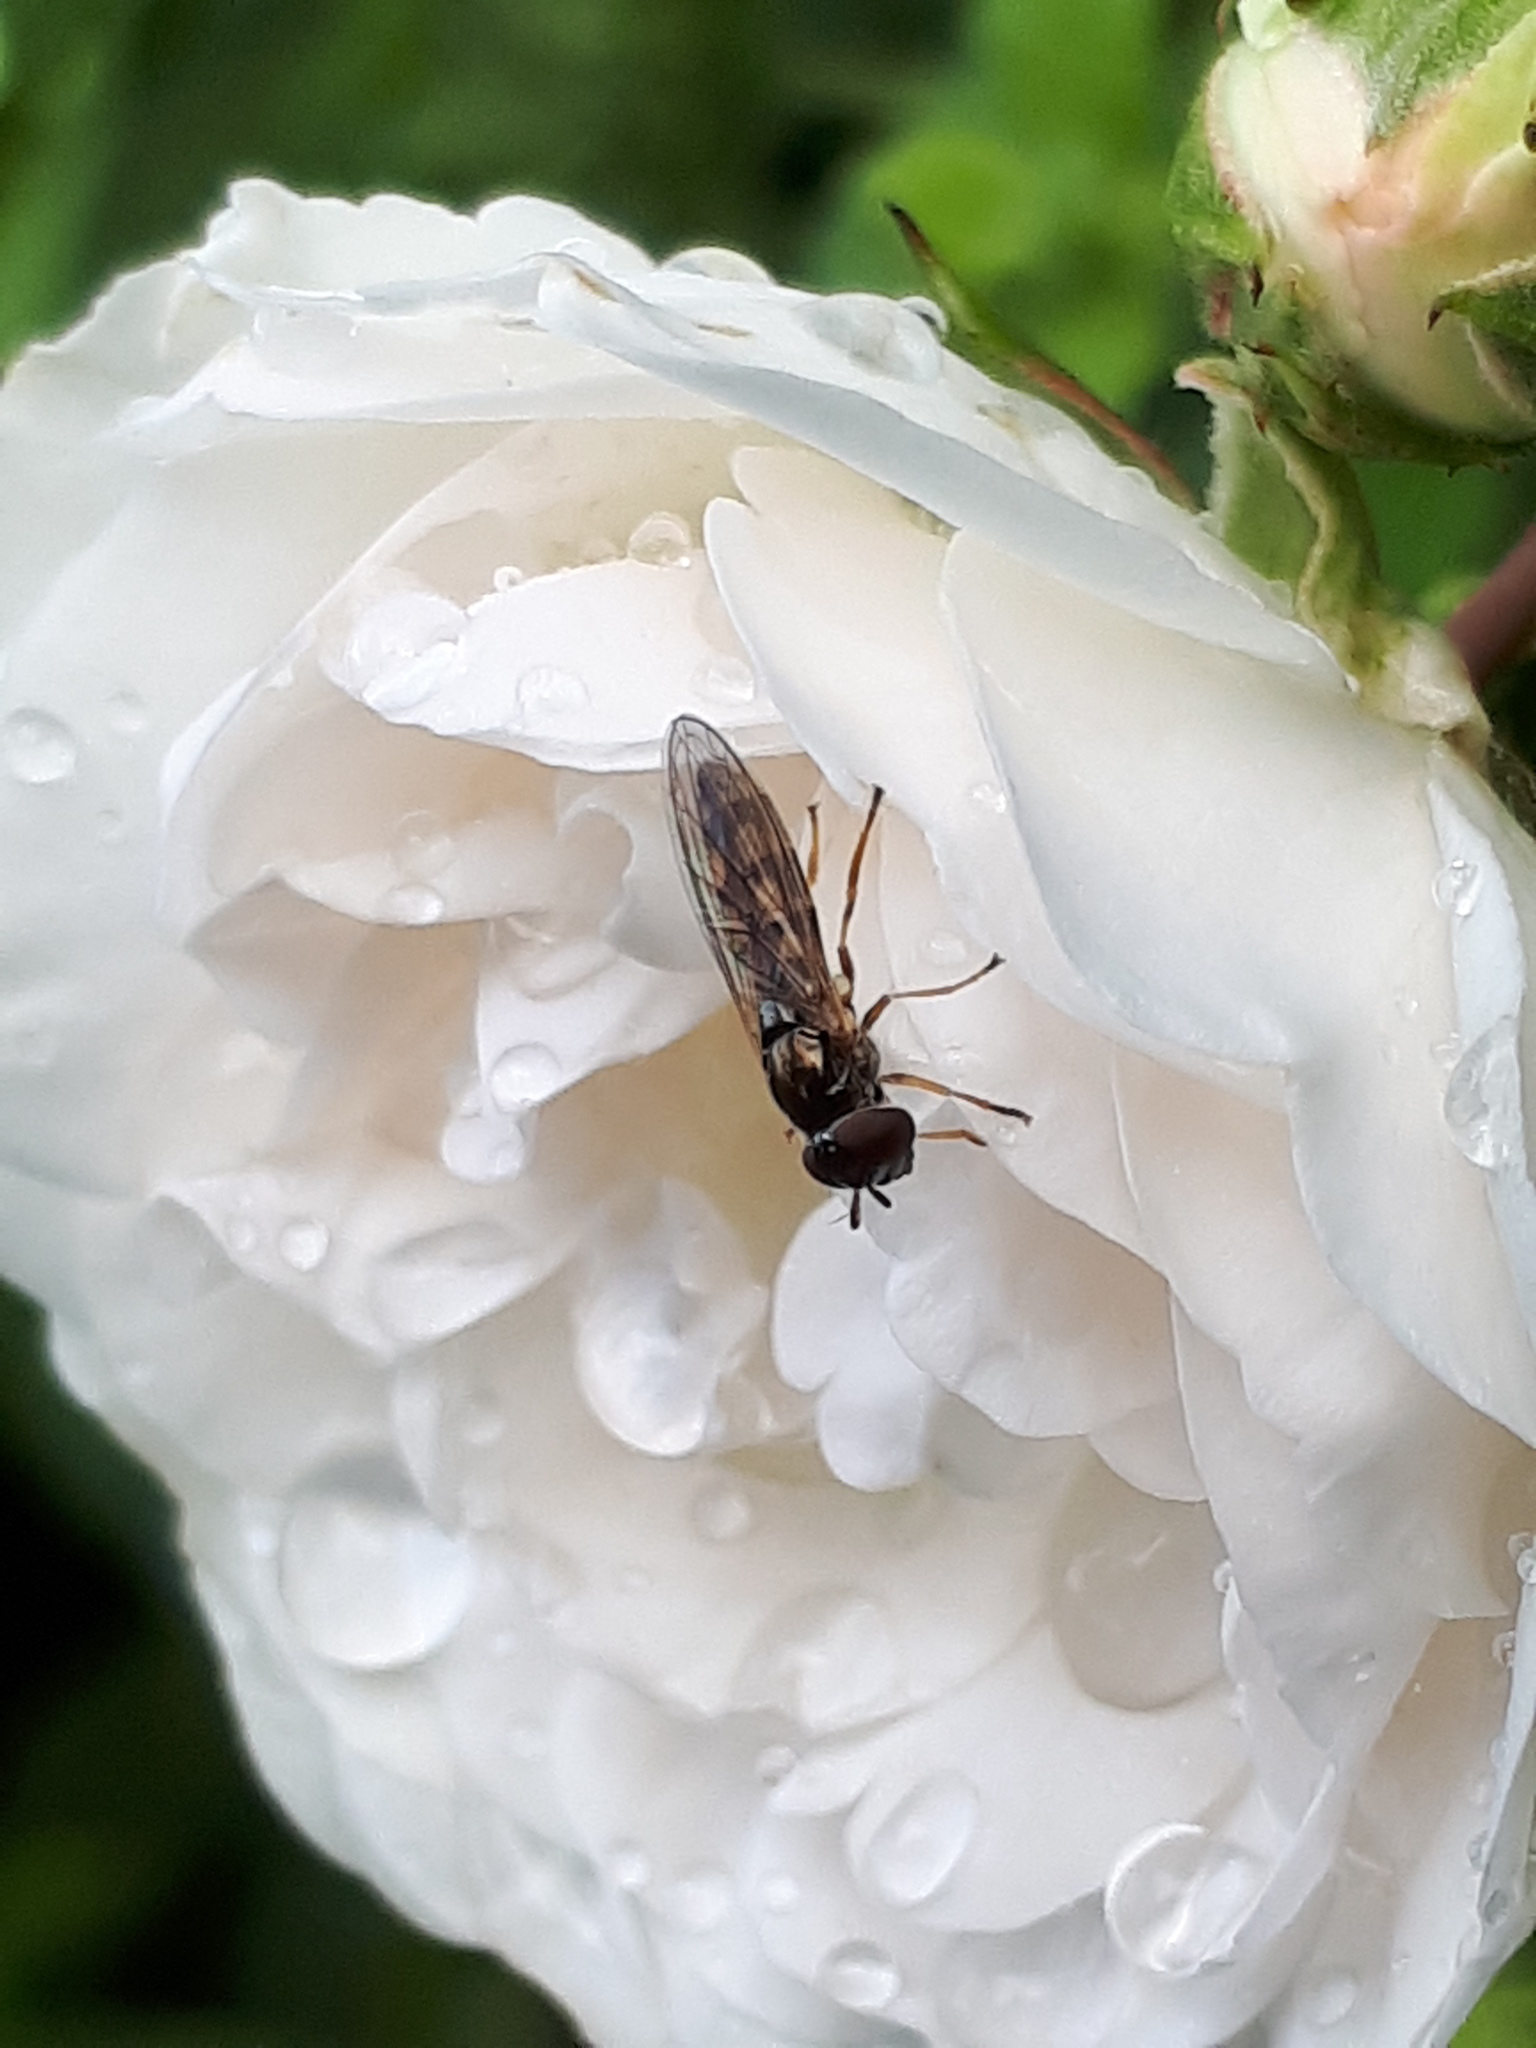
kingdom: Animalia
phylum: Arthropoda
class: Insecta
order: Diptera
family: Syrphidae
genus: Melanostoma
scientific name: Melanostoma scalare
